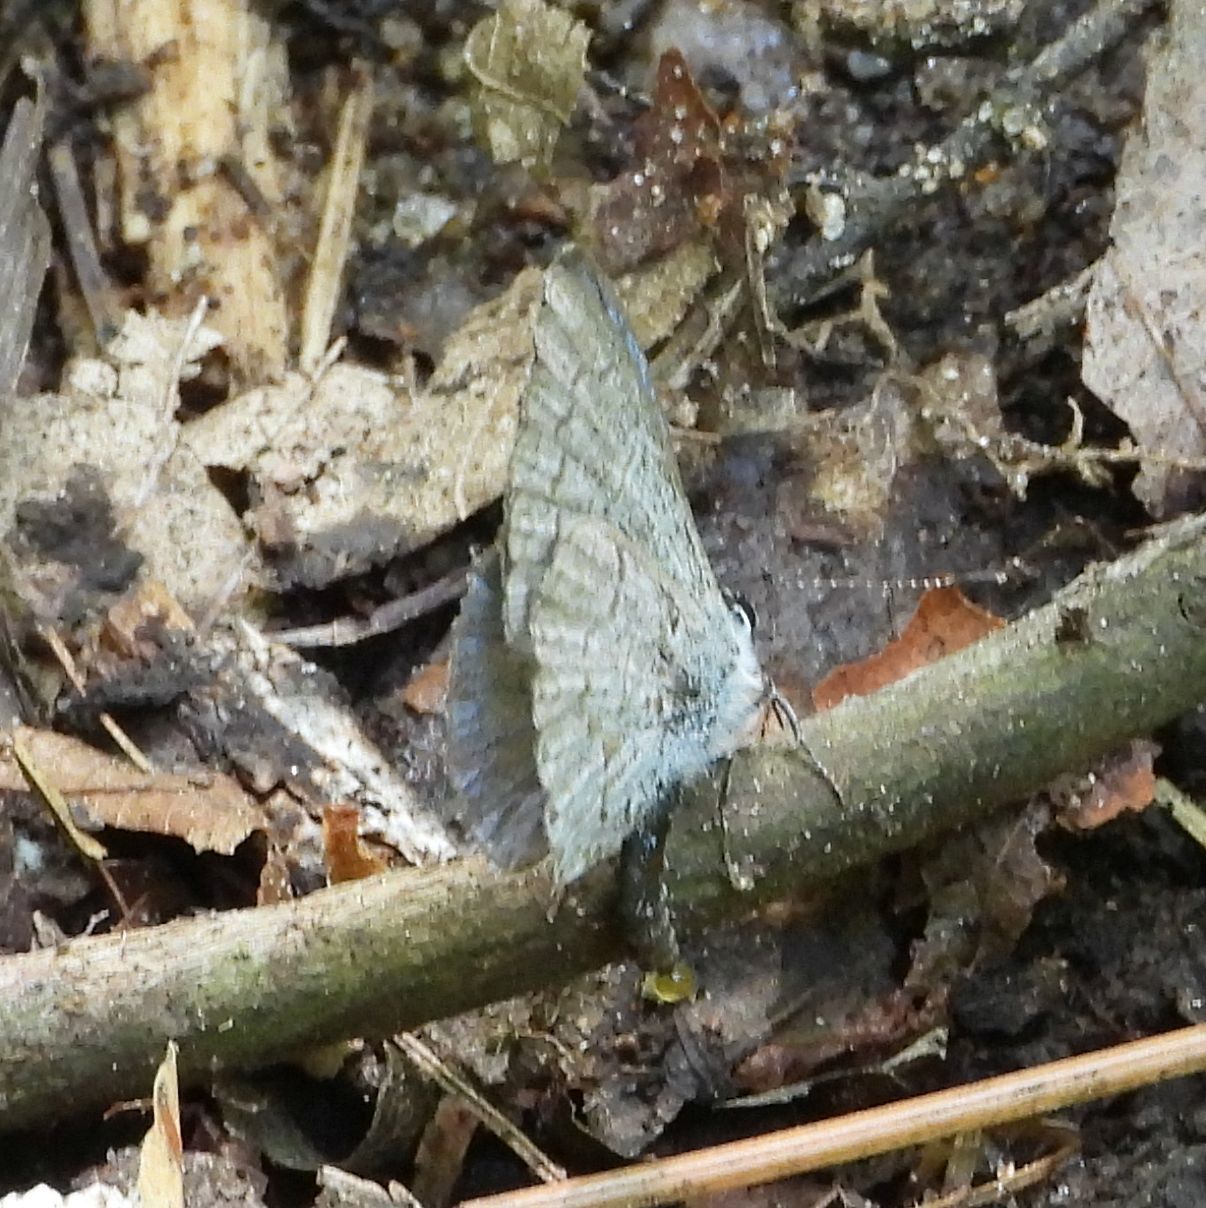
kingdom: Animalia
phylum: Arthropoda
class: Insecta
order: Lepidoptera
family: Lycaenidae
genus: Celastrina
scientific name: Celastrina lucia
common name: Lucia azure
